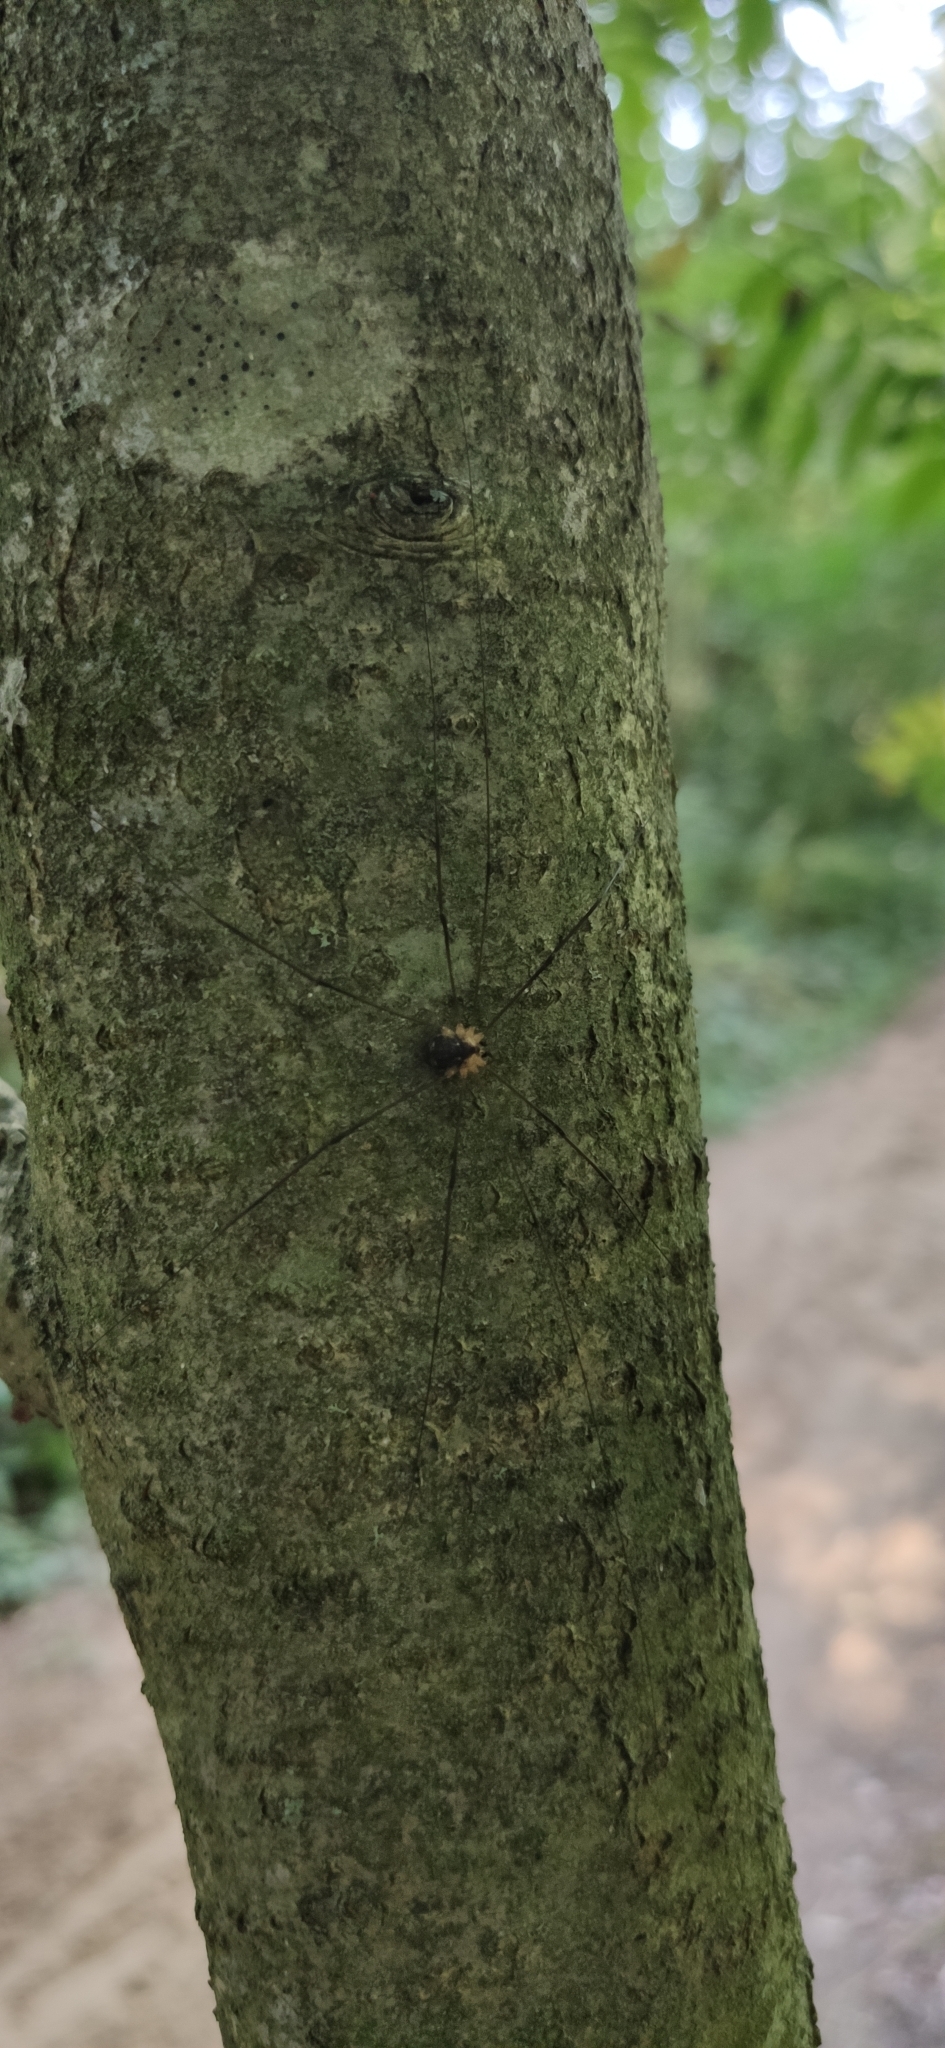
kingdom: Animalia
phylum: Arthropoda
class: Arachnida
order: Opiliones
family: Sclerosomatidae
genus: Leiobunum
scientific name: Leiobunum gracile
